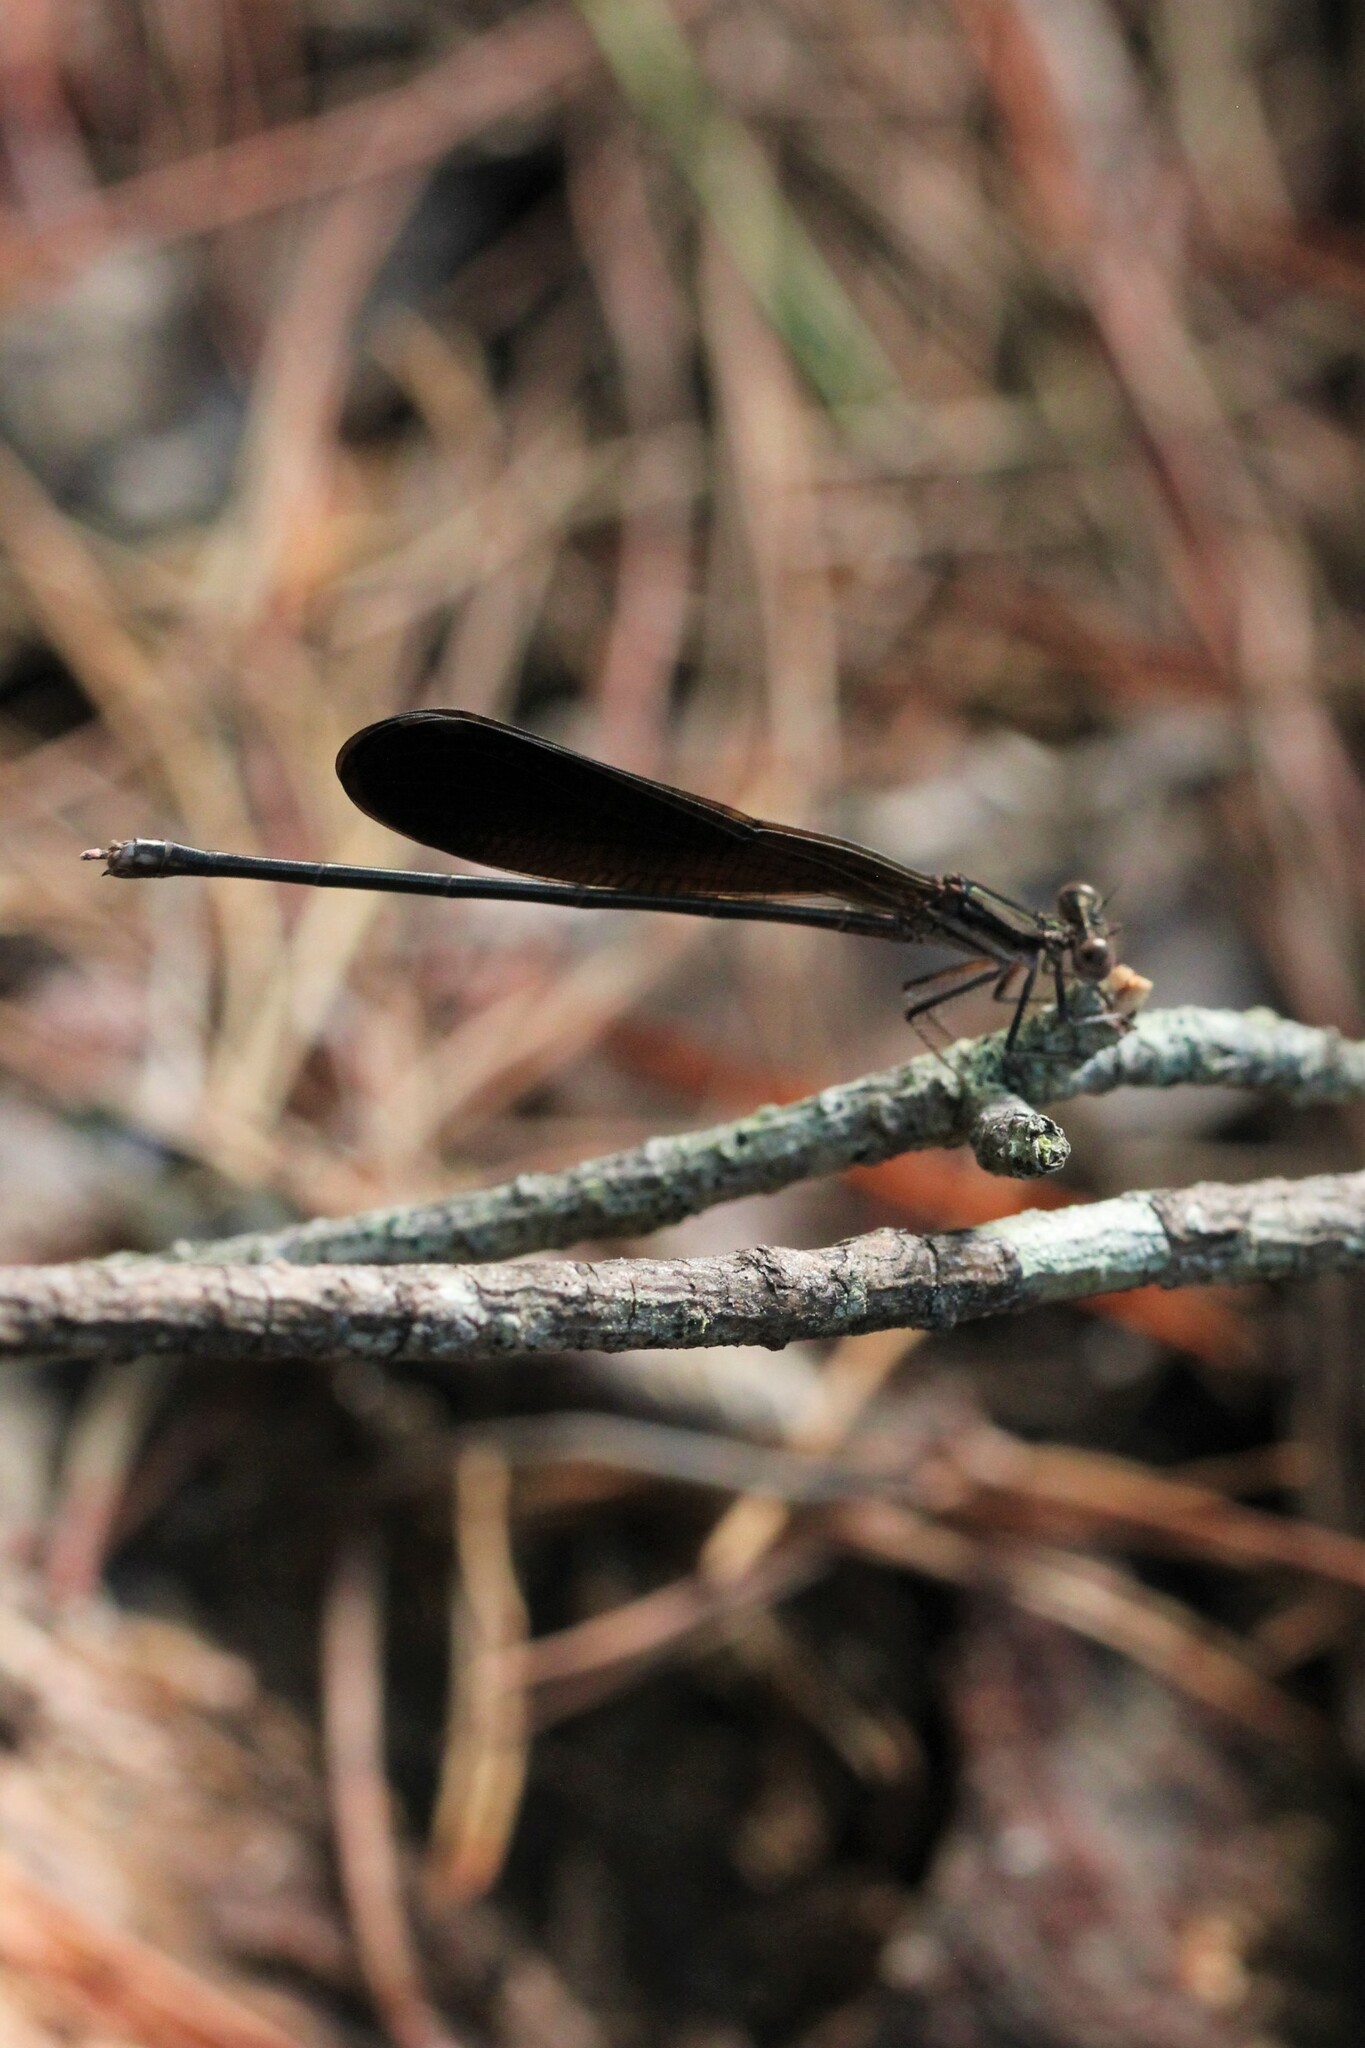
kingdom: Animalia
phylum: Arthropoda
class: Insecta
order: Odonata
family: Coenagrionidae
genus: Argia
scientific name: Argia fumipennis
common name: Variable dancer
